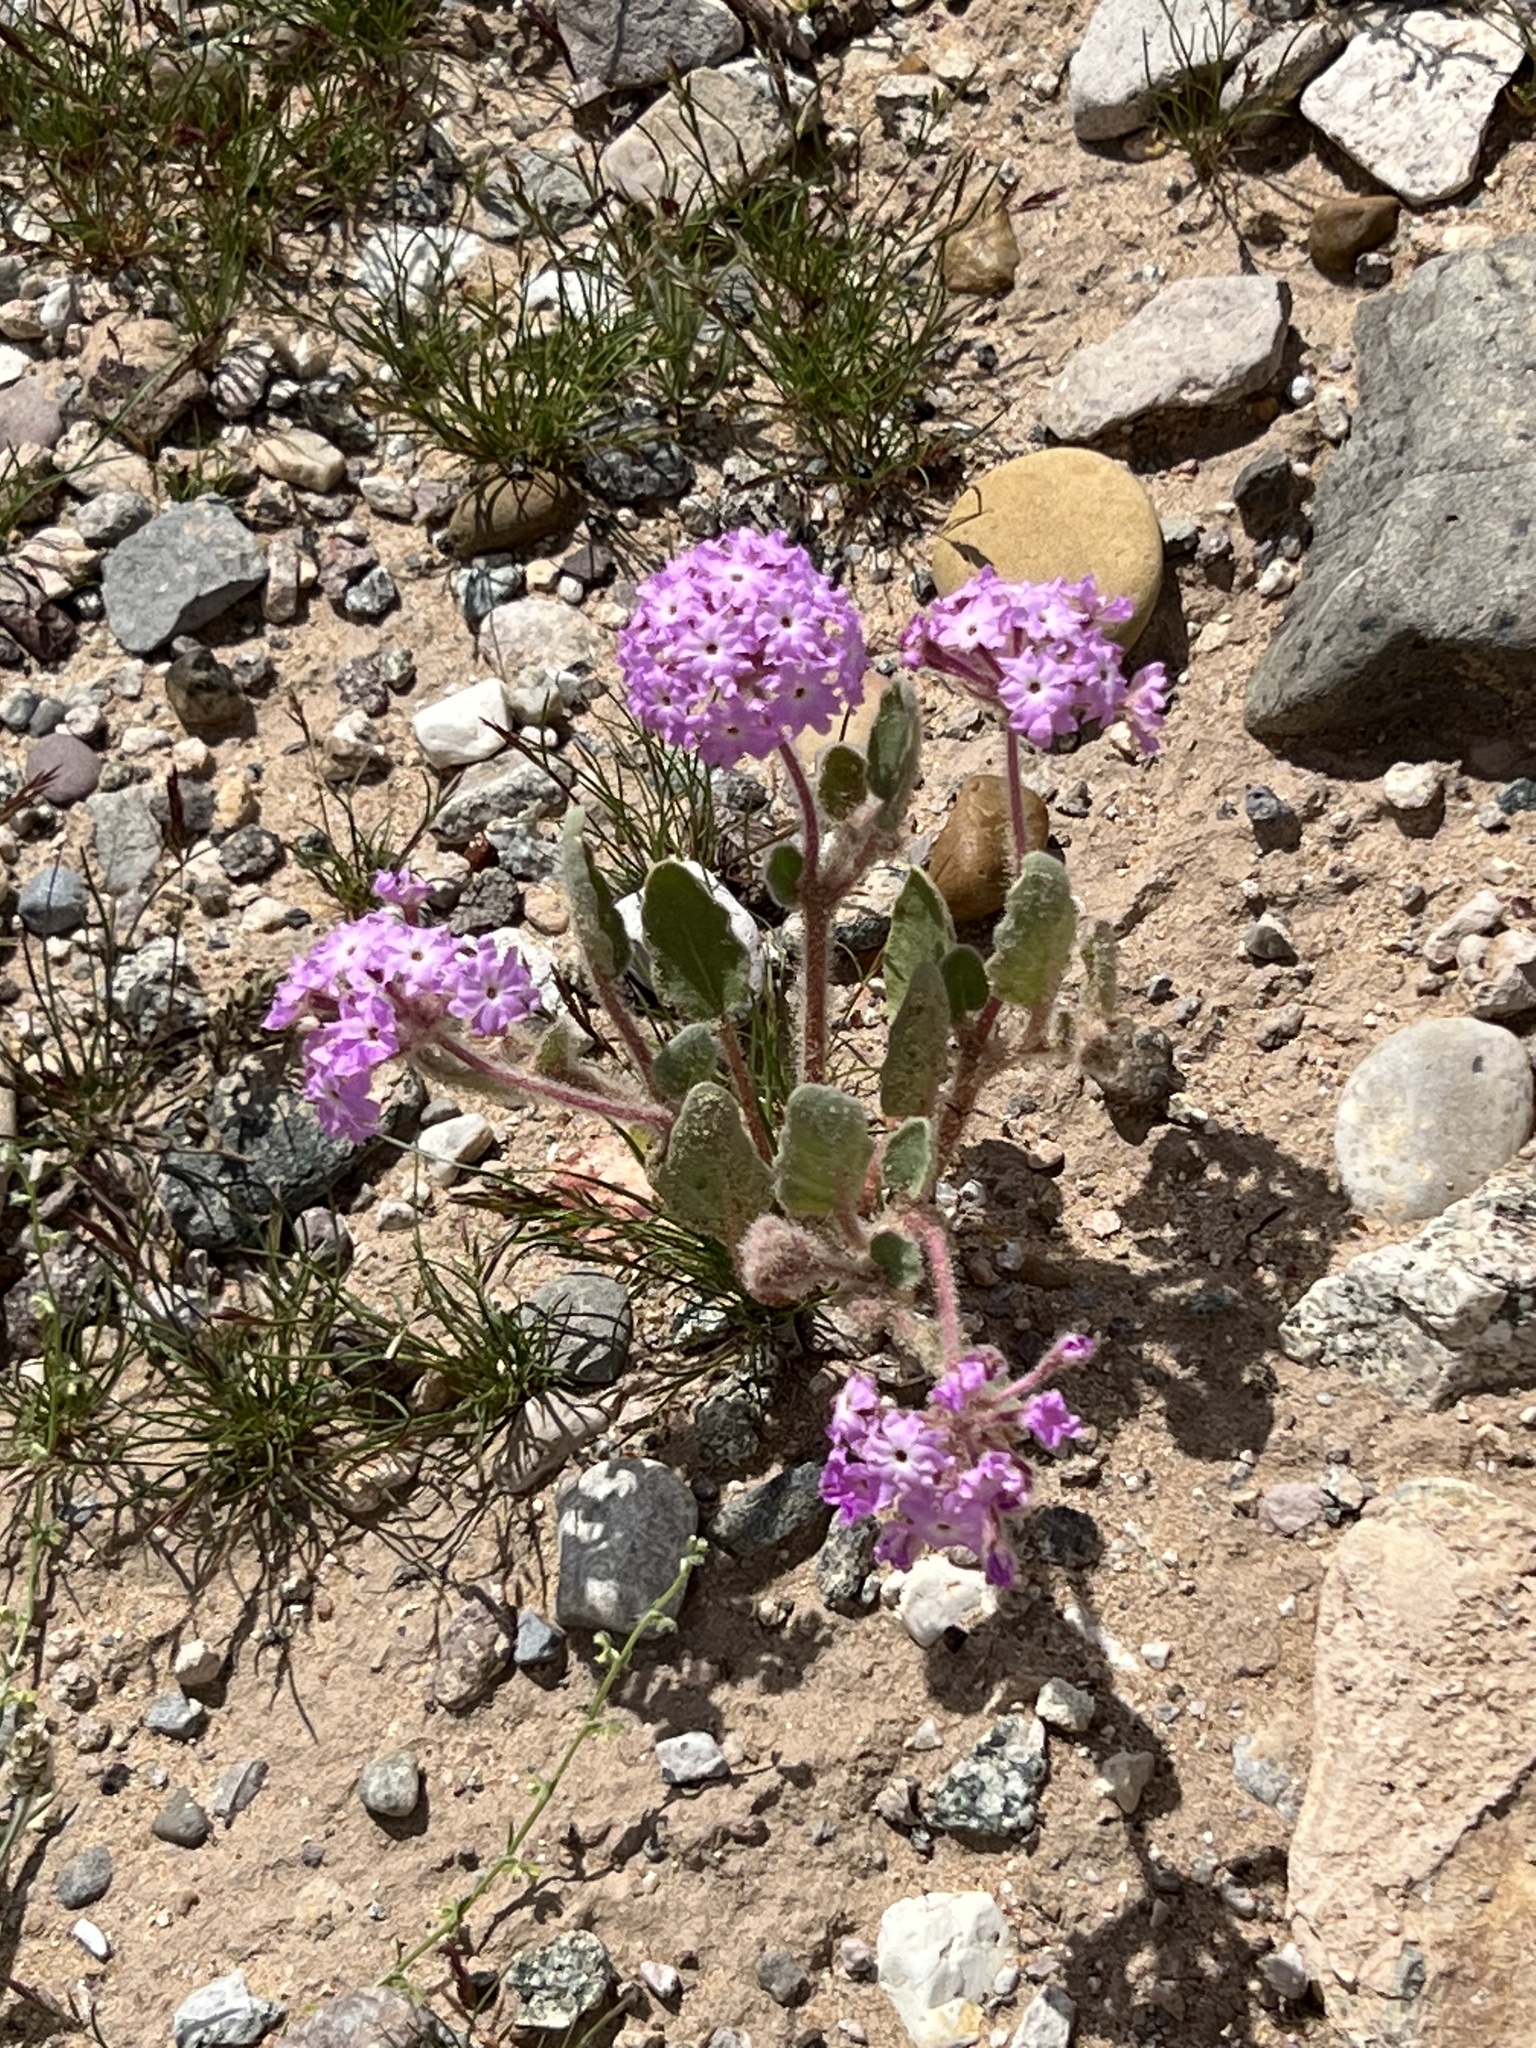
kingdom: Plantae
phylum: Tracheophyta
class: Magnoliopsida
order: Caryophyllales
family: Nyctaginaceae
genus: Abronia
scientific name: Abronia villosa
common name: Desert sand-verbena
